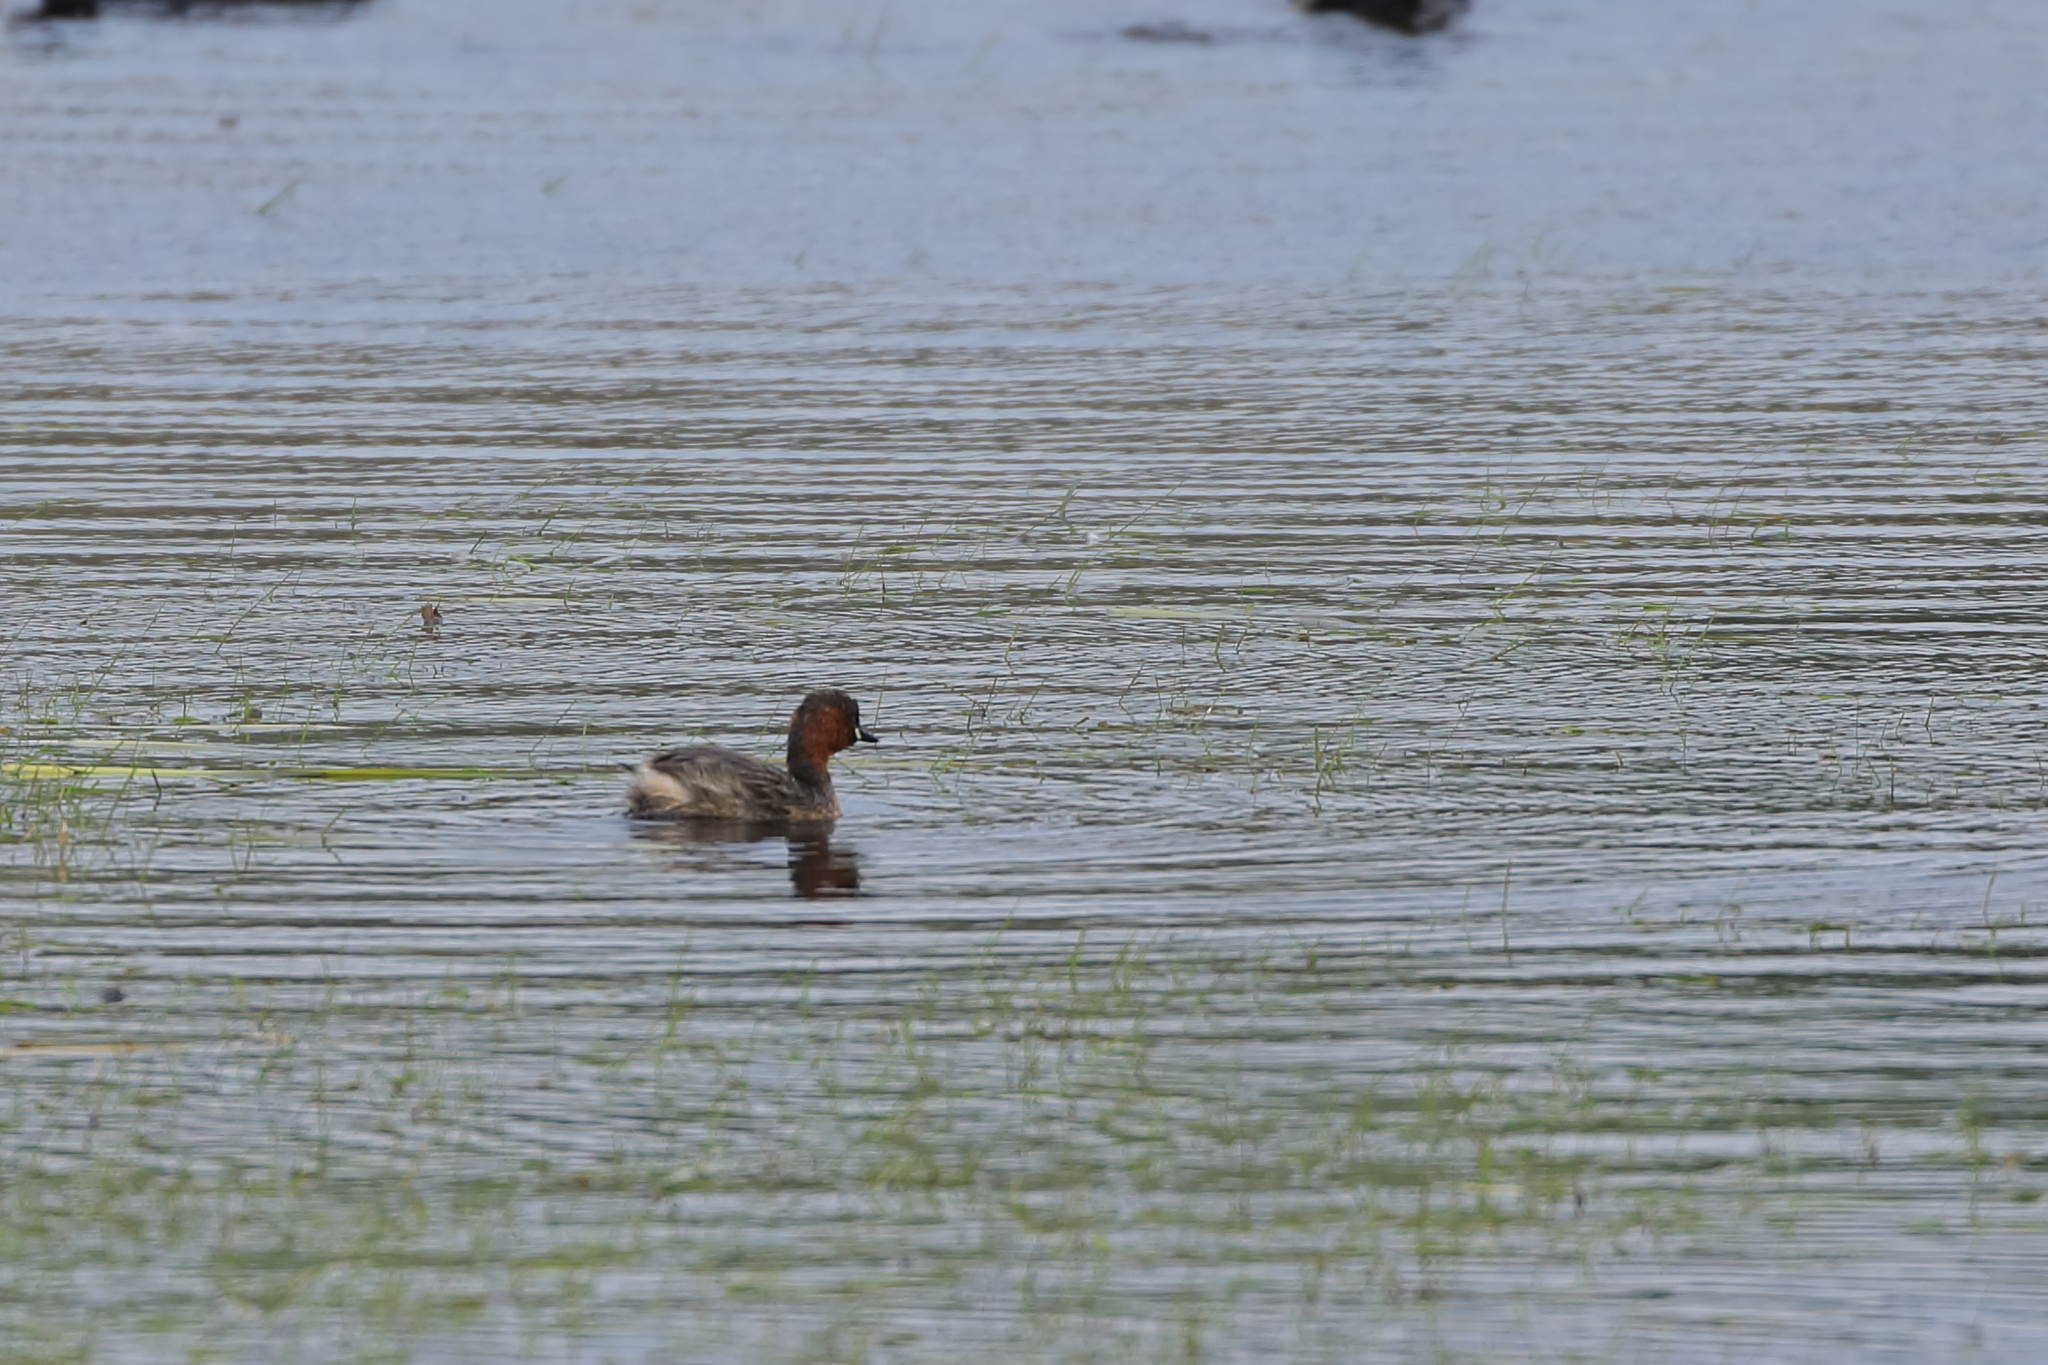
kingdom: Animalia
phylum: Chordata
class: Aves
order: Podicipediformes
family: Podicipedidae
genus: Tachybaptus
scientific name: Tachybaptus ruficollis
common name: Little grebe
